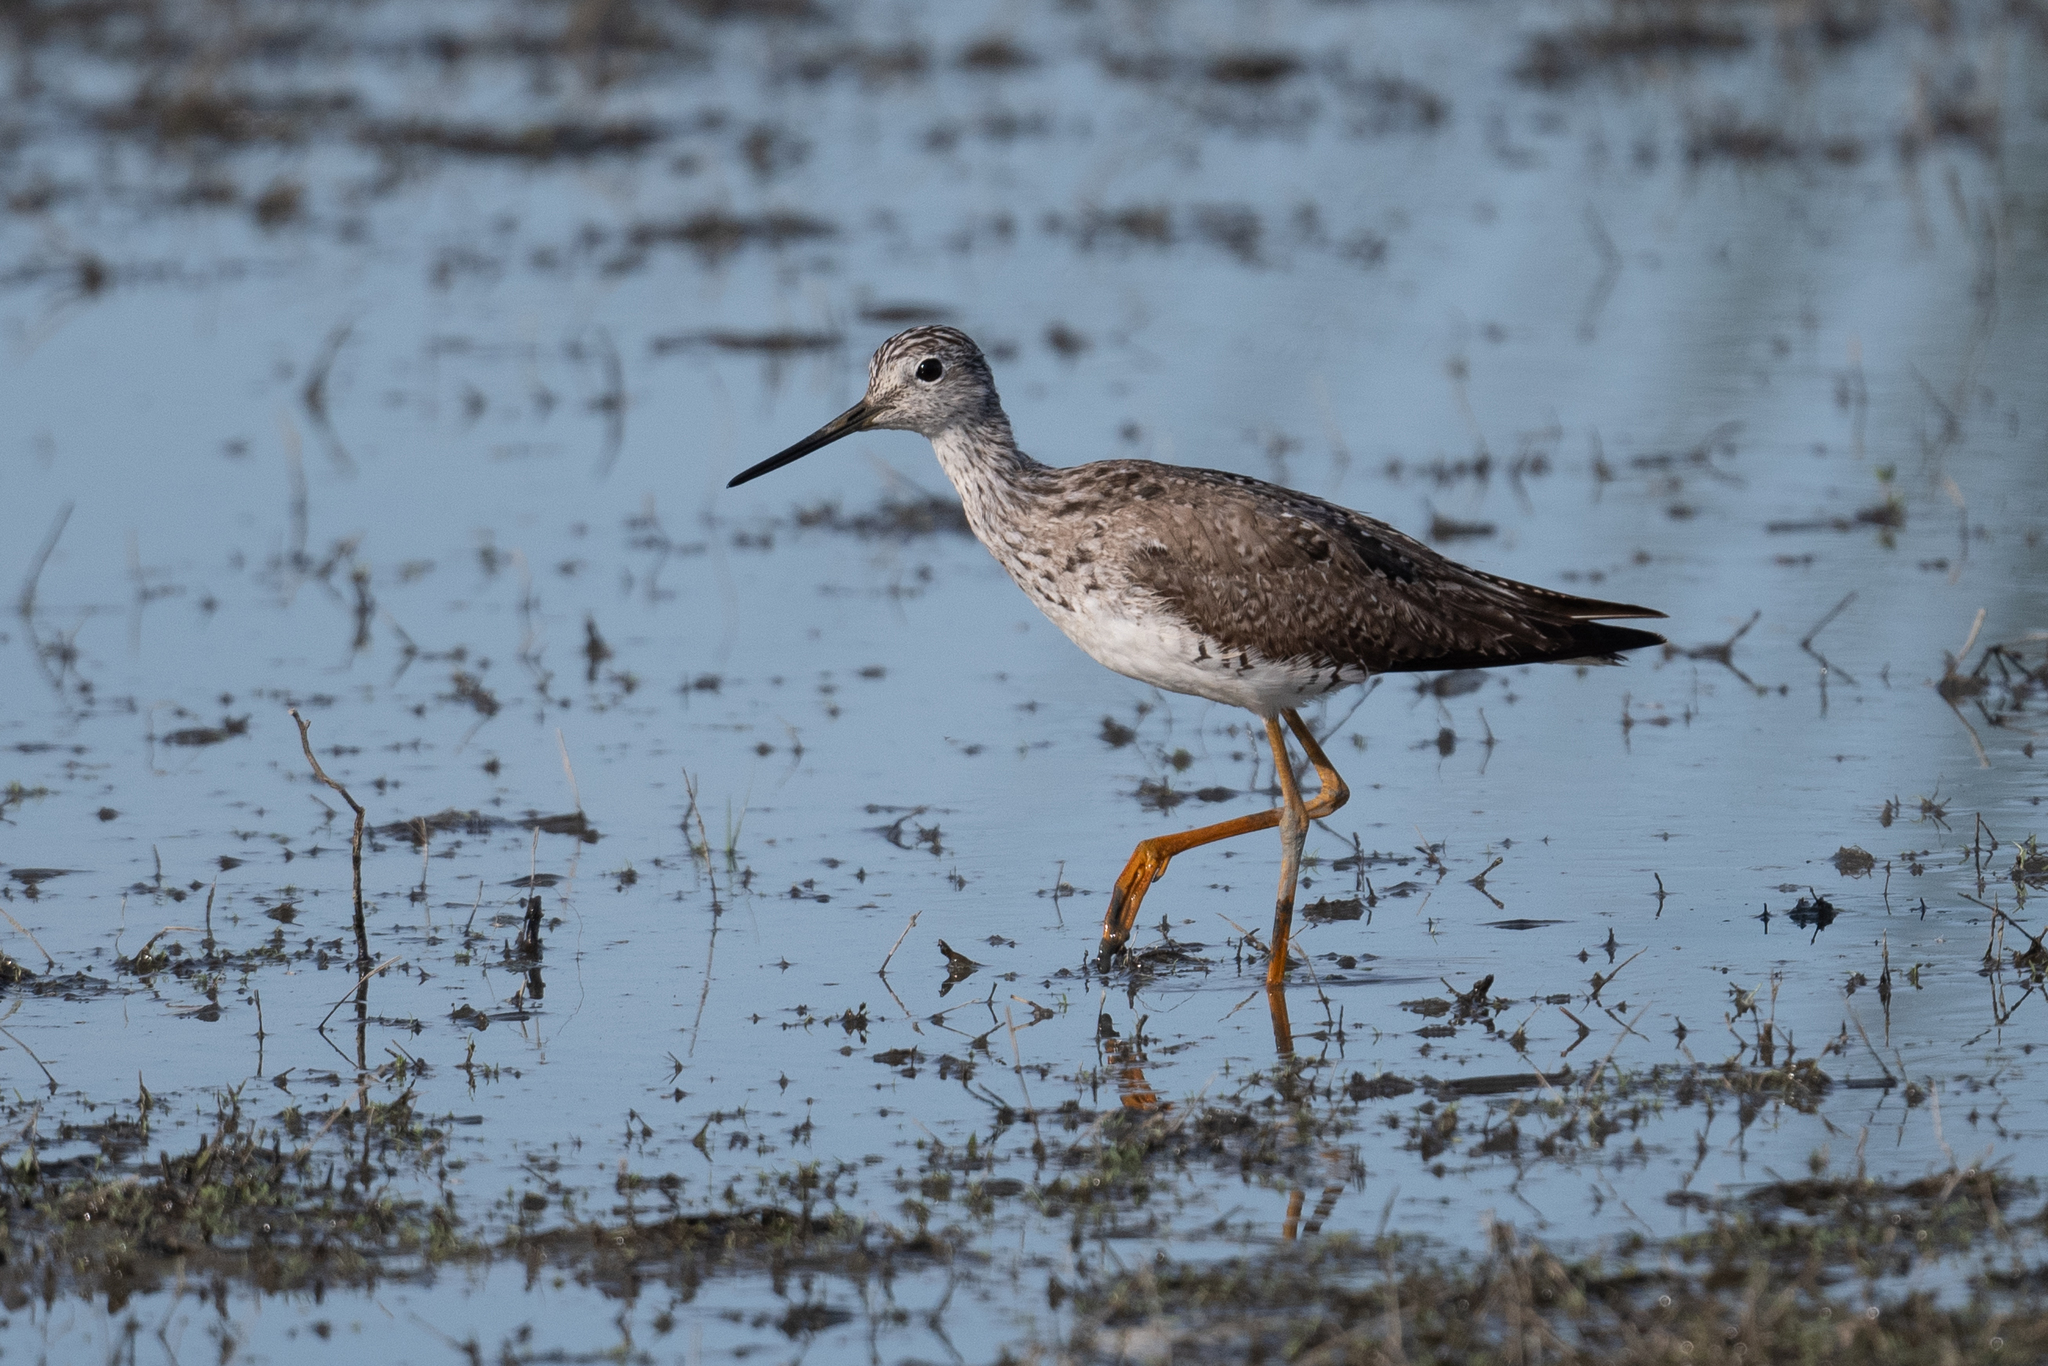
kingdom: Animalia
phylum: Chordata
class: Aves
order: Charadriiformes
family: Scolopacidae
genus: Tringa
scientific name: Tringa melanoleuca
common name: Greater yellowlegs
